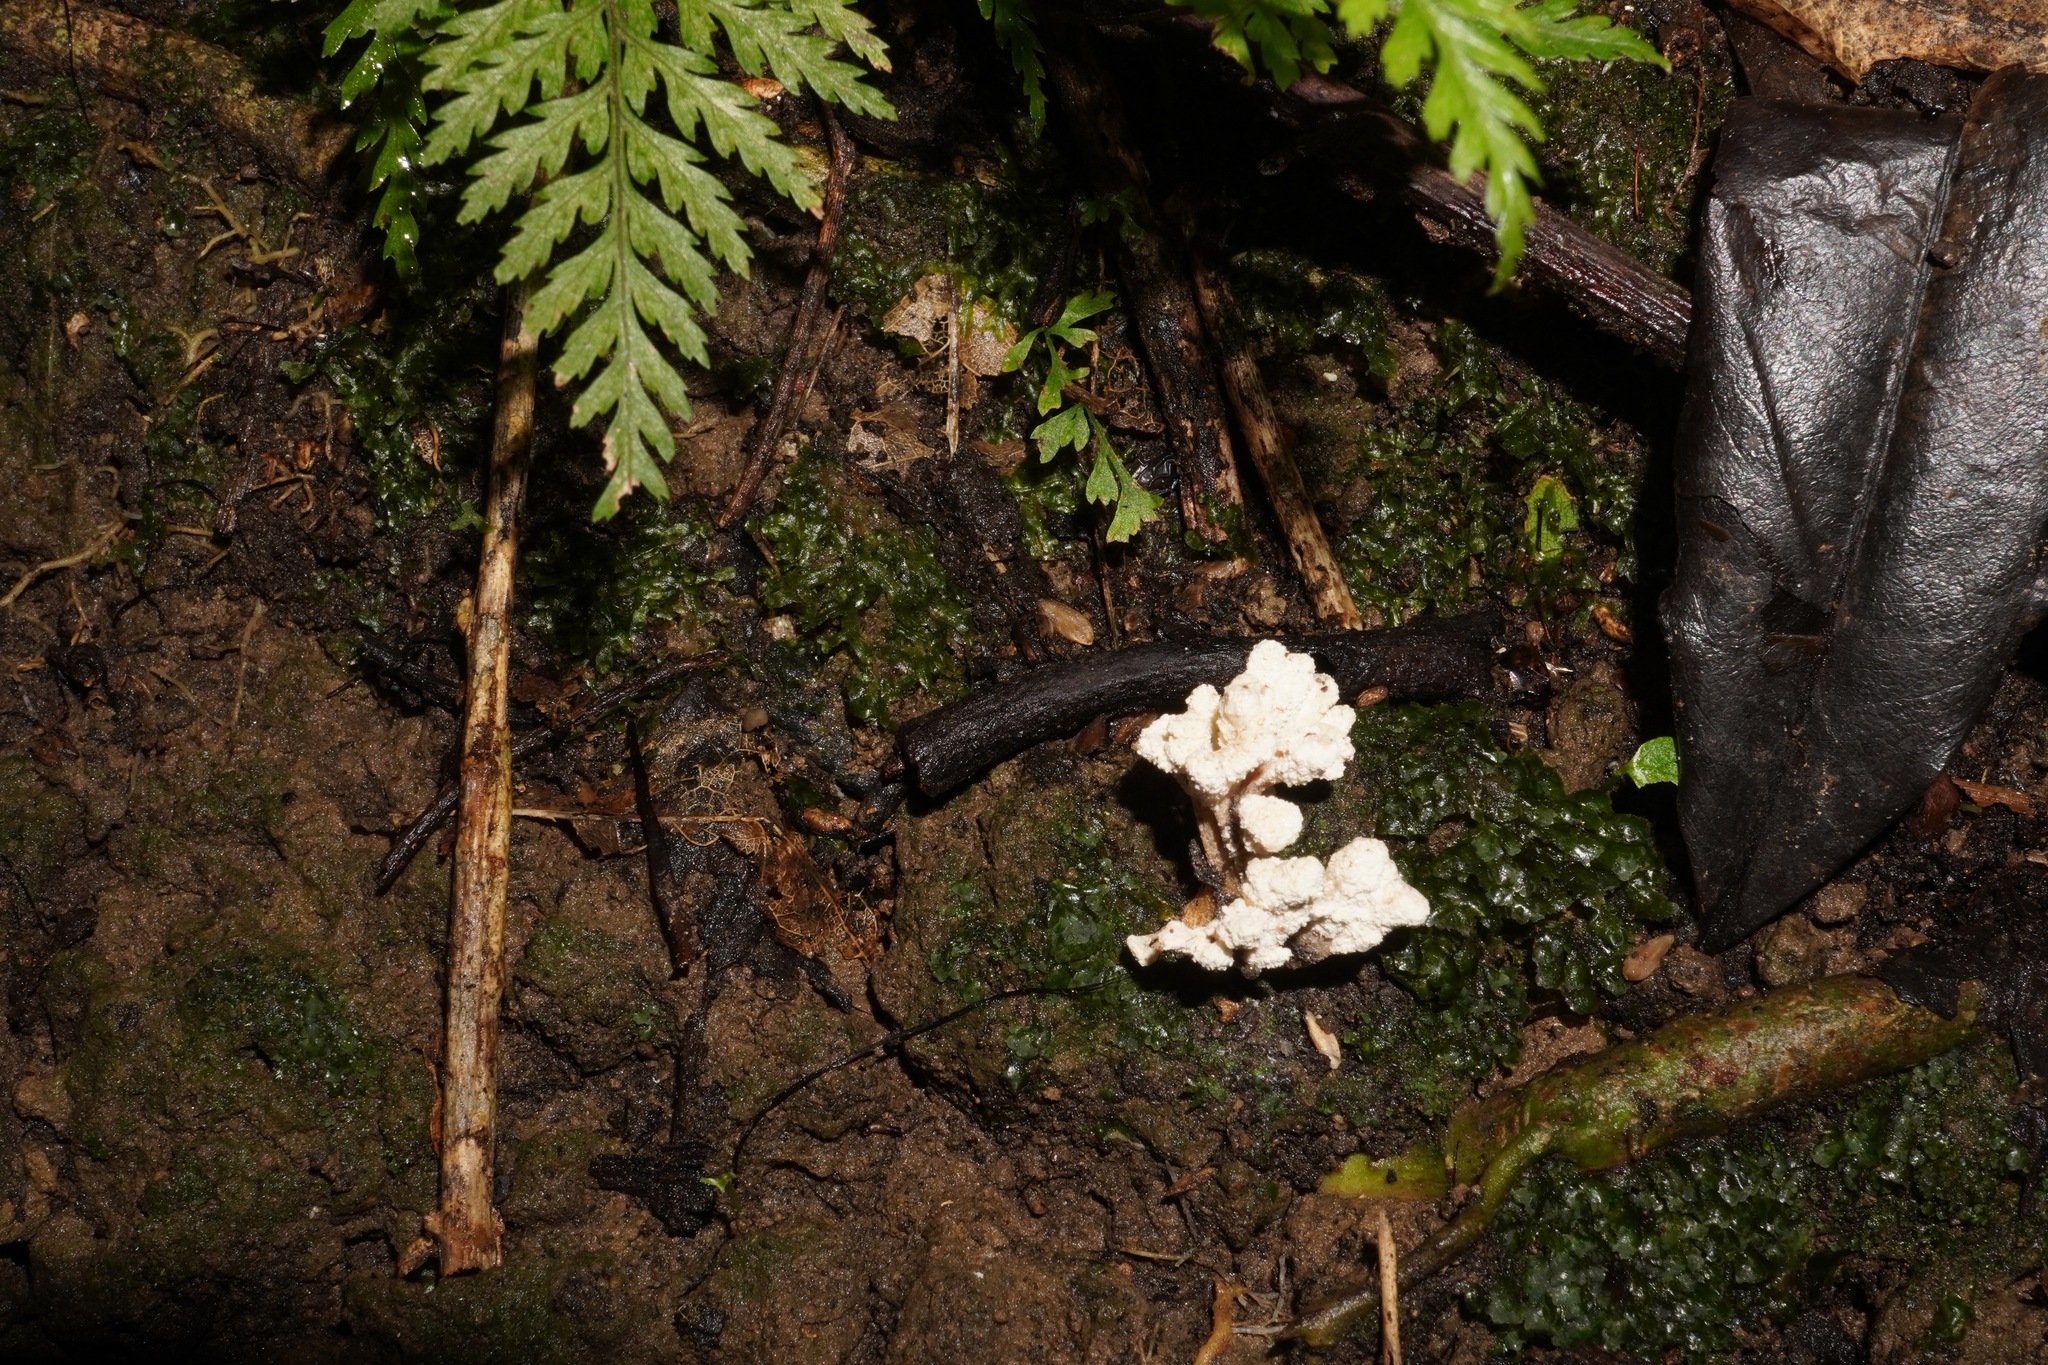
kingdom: Fungi
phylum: Ascomycota
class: Sordariomycetes
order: Hypocreales
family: Cordycipitaceae
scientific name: Cordycipitaceae
